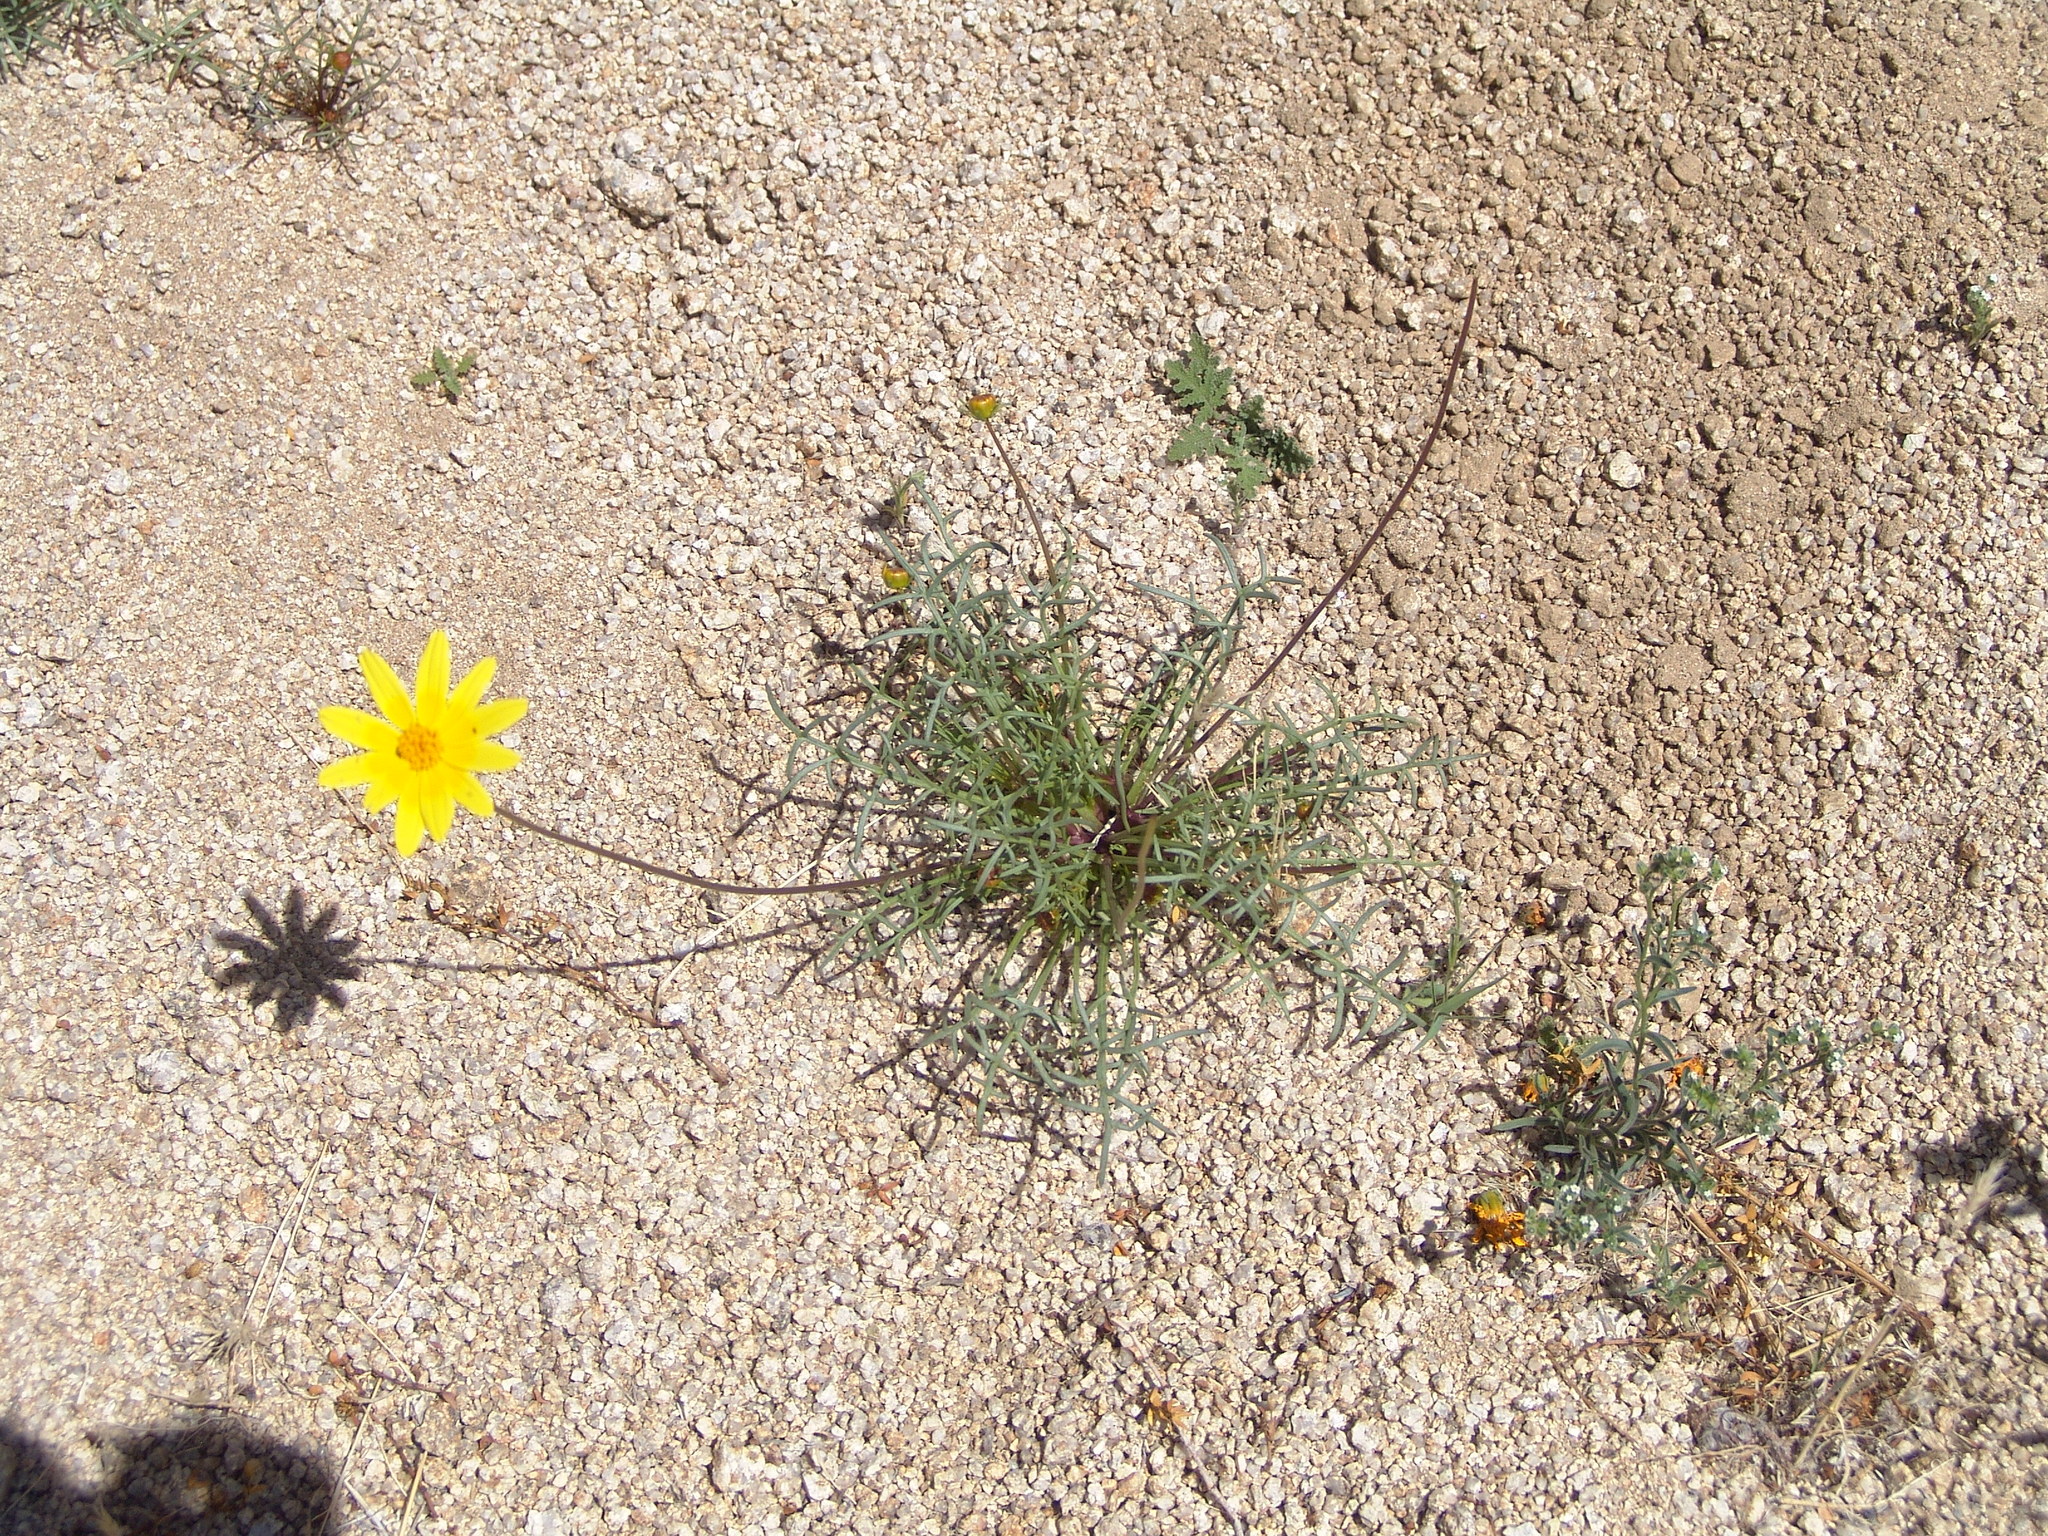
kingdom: Plantae
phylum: Tracheophyta
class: Magnoliopsida
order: Asterales
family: Asteraceae
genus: Coreopsis
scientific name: Coreopsis bigelovii
